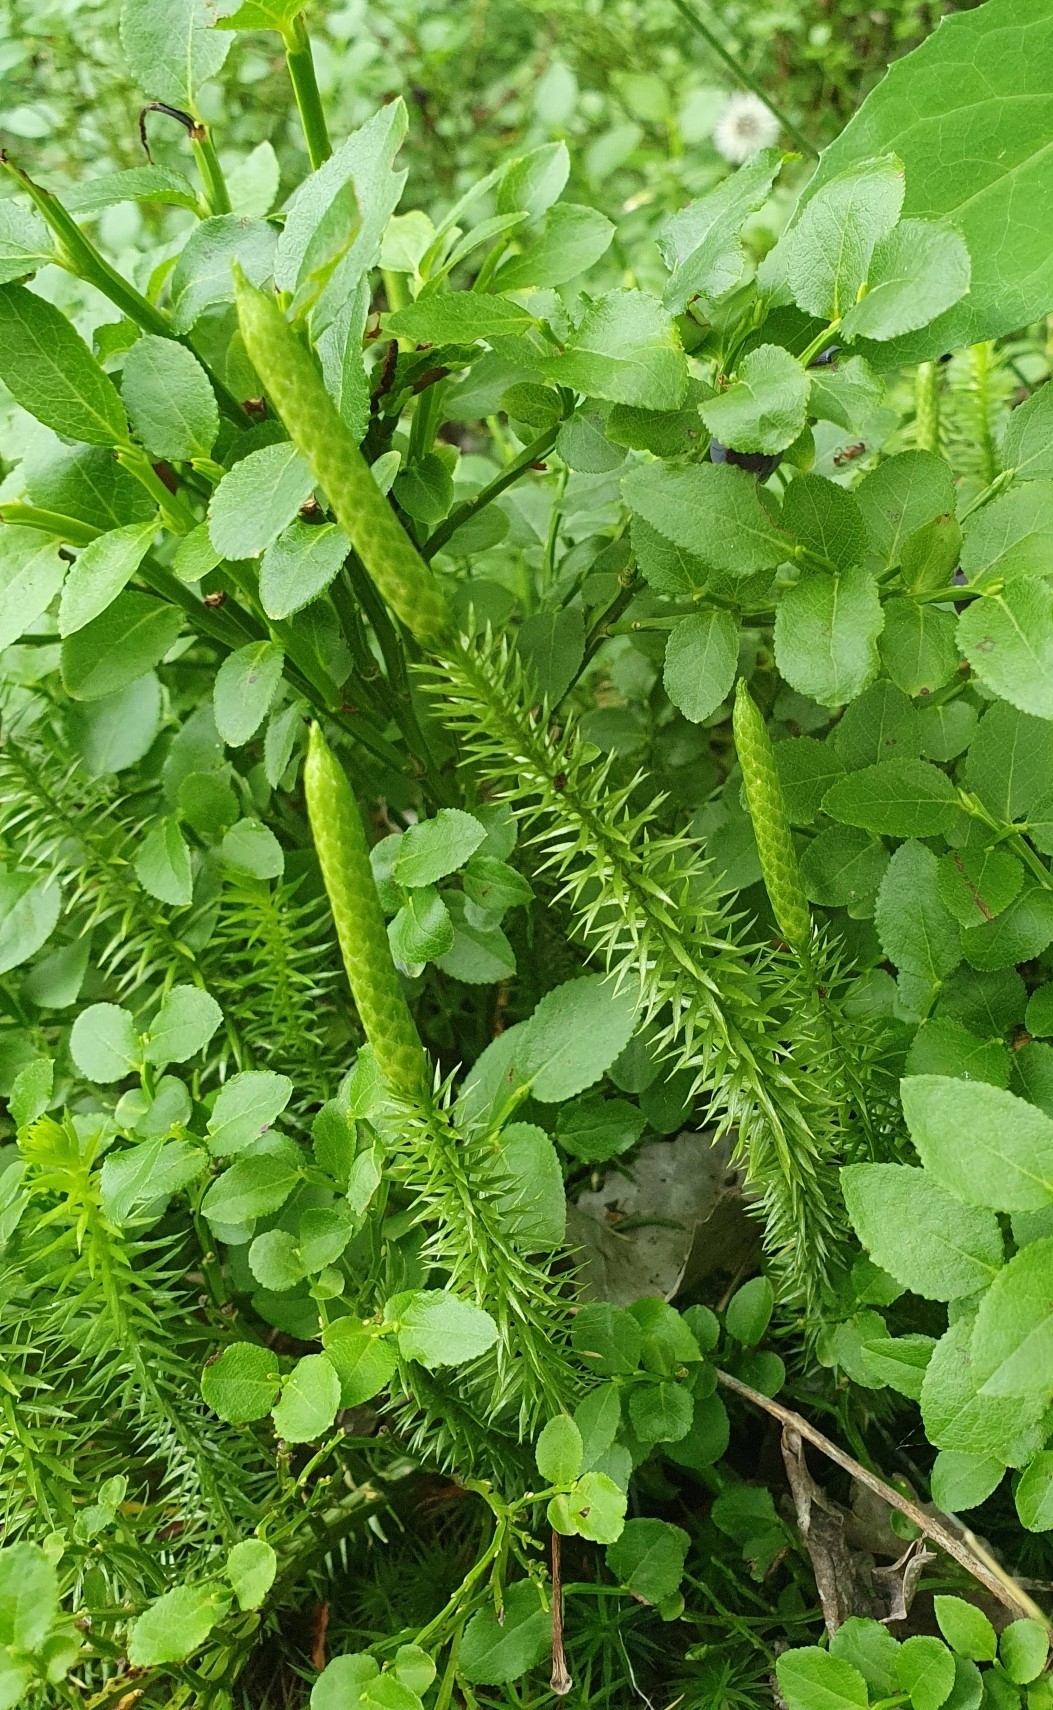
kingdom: Plantae
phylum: Tracheophyta
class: Lycopodiopsida
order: Lycopodiales
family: Lycopodiaceae
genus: Spinulum
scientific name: Spinulum annotinum
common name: Interrupted club-moss
